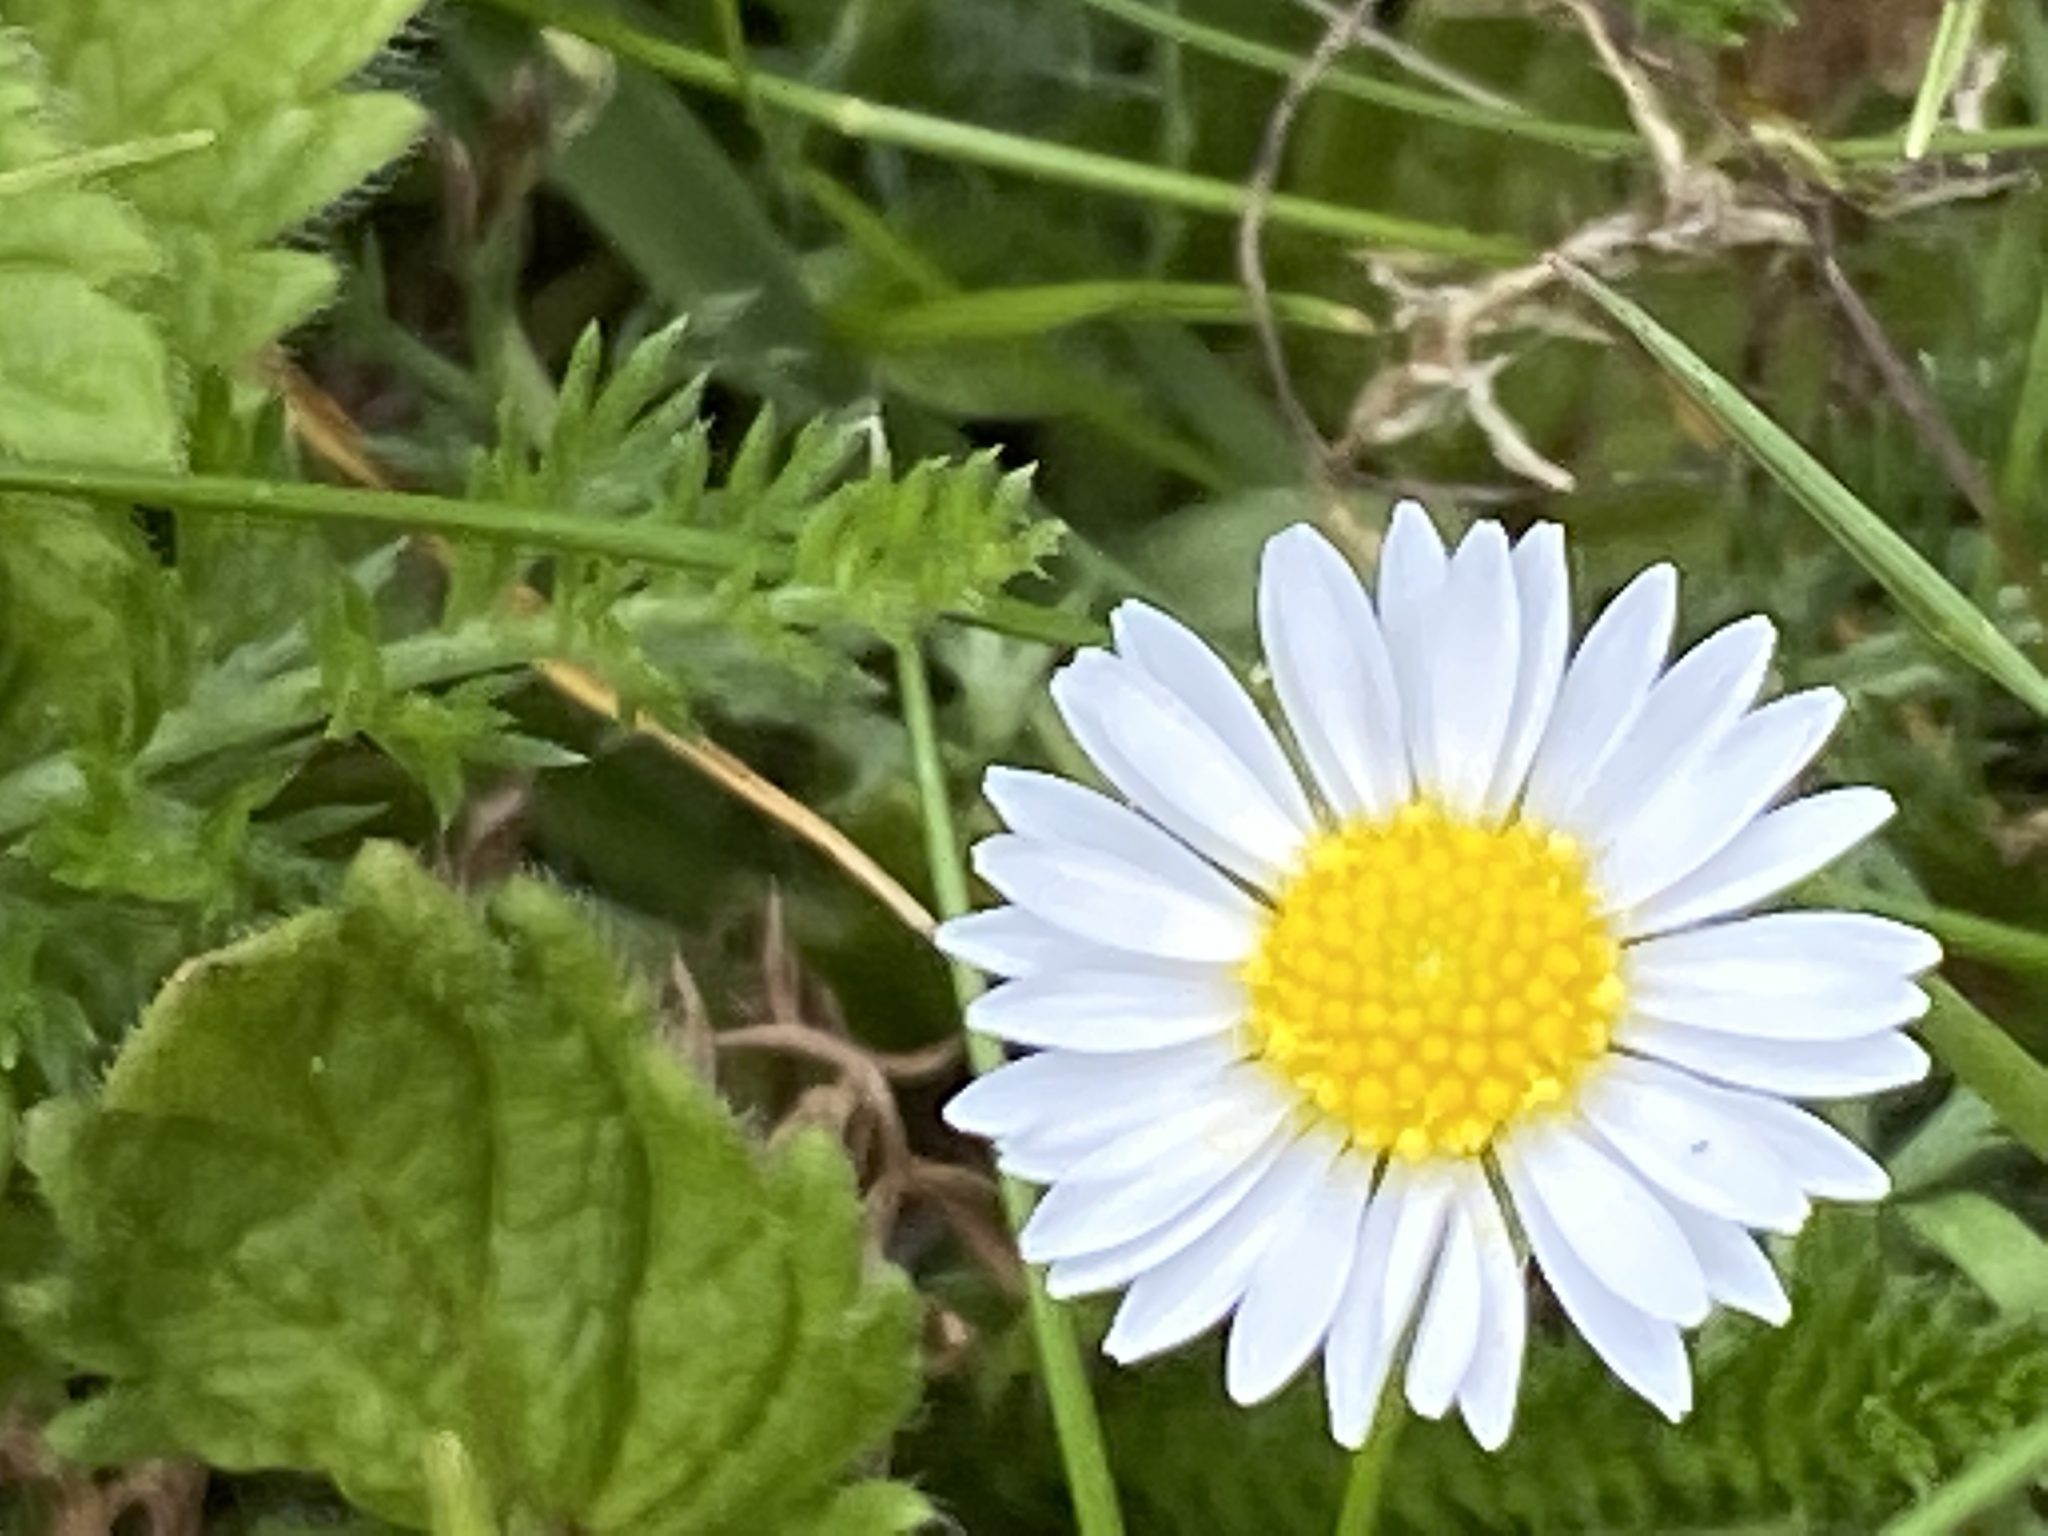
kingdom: Plantae
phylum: Tracheophyta
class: Magnoliopsida
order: Asterales
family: Asteraceae
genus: Bellis
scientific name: Bellis perennis
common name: Lawndaisy
